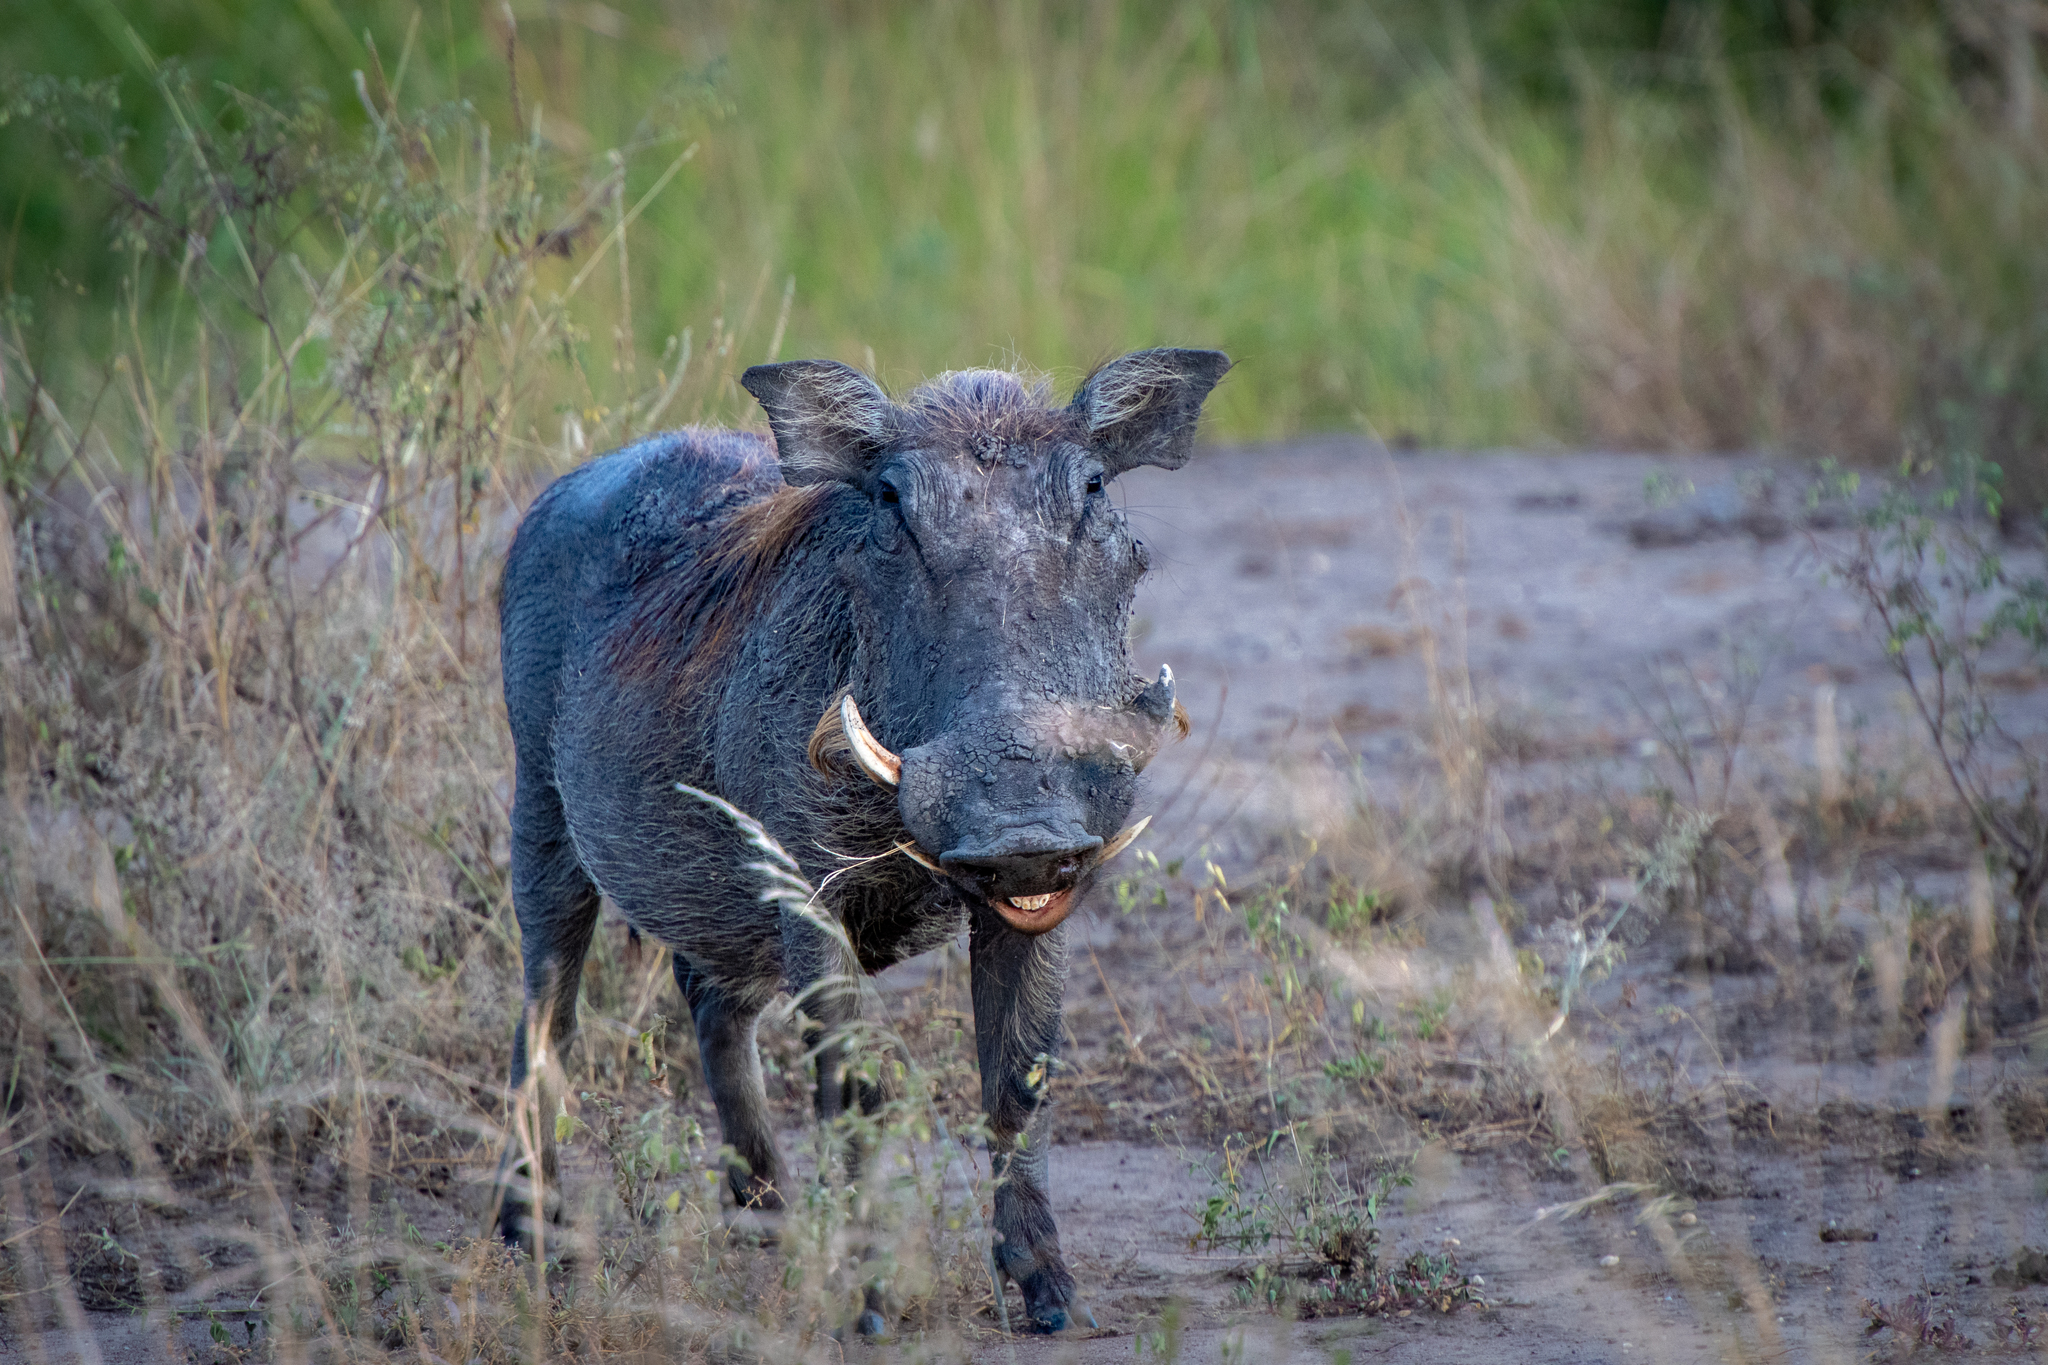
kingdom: Animalia
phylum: Chordata
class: Mammalia
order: Artiodactyla
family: Suidae
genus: Phacochoerus
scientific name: Phacochoerus africanus
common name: Common warthog
